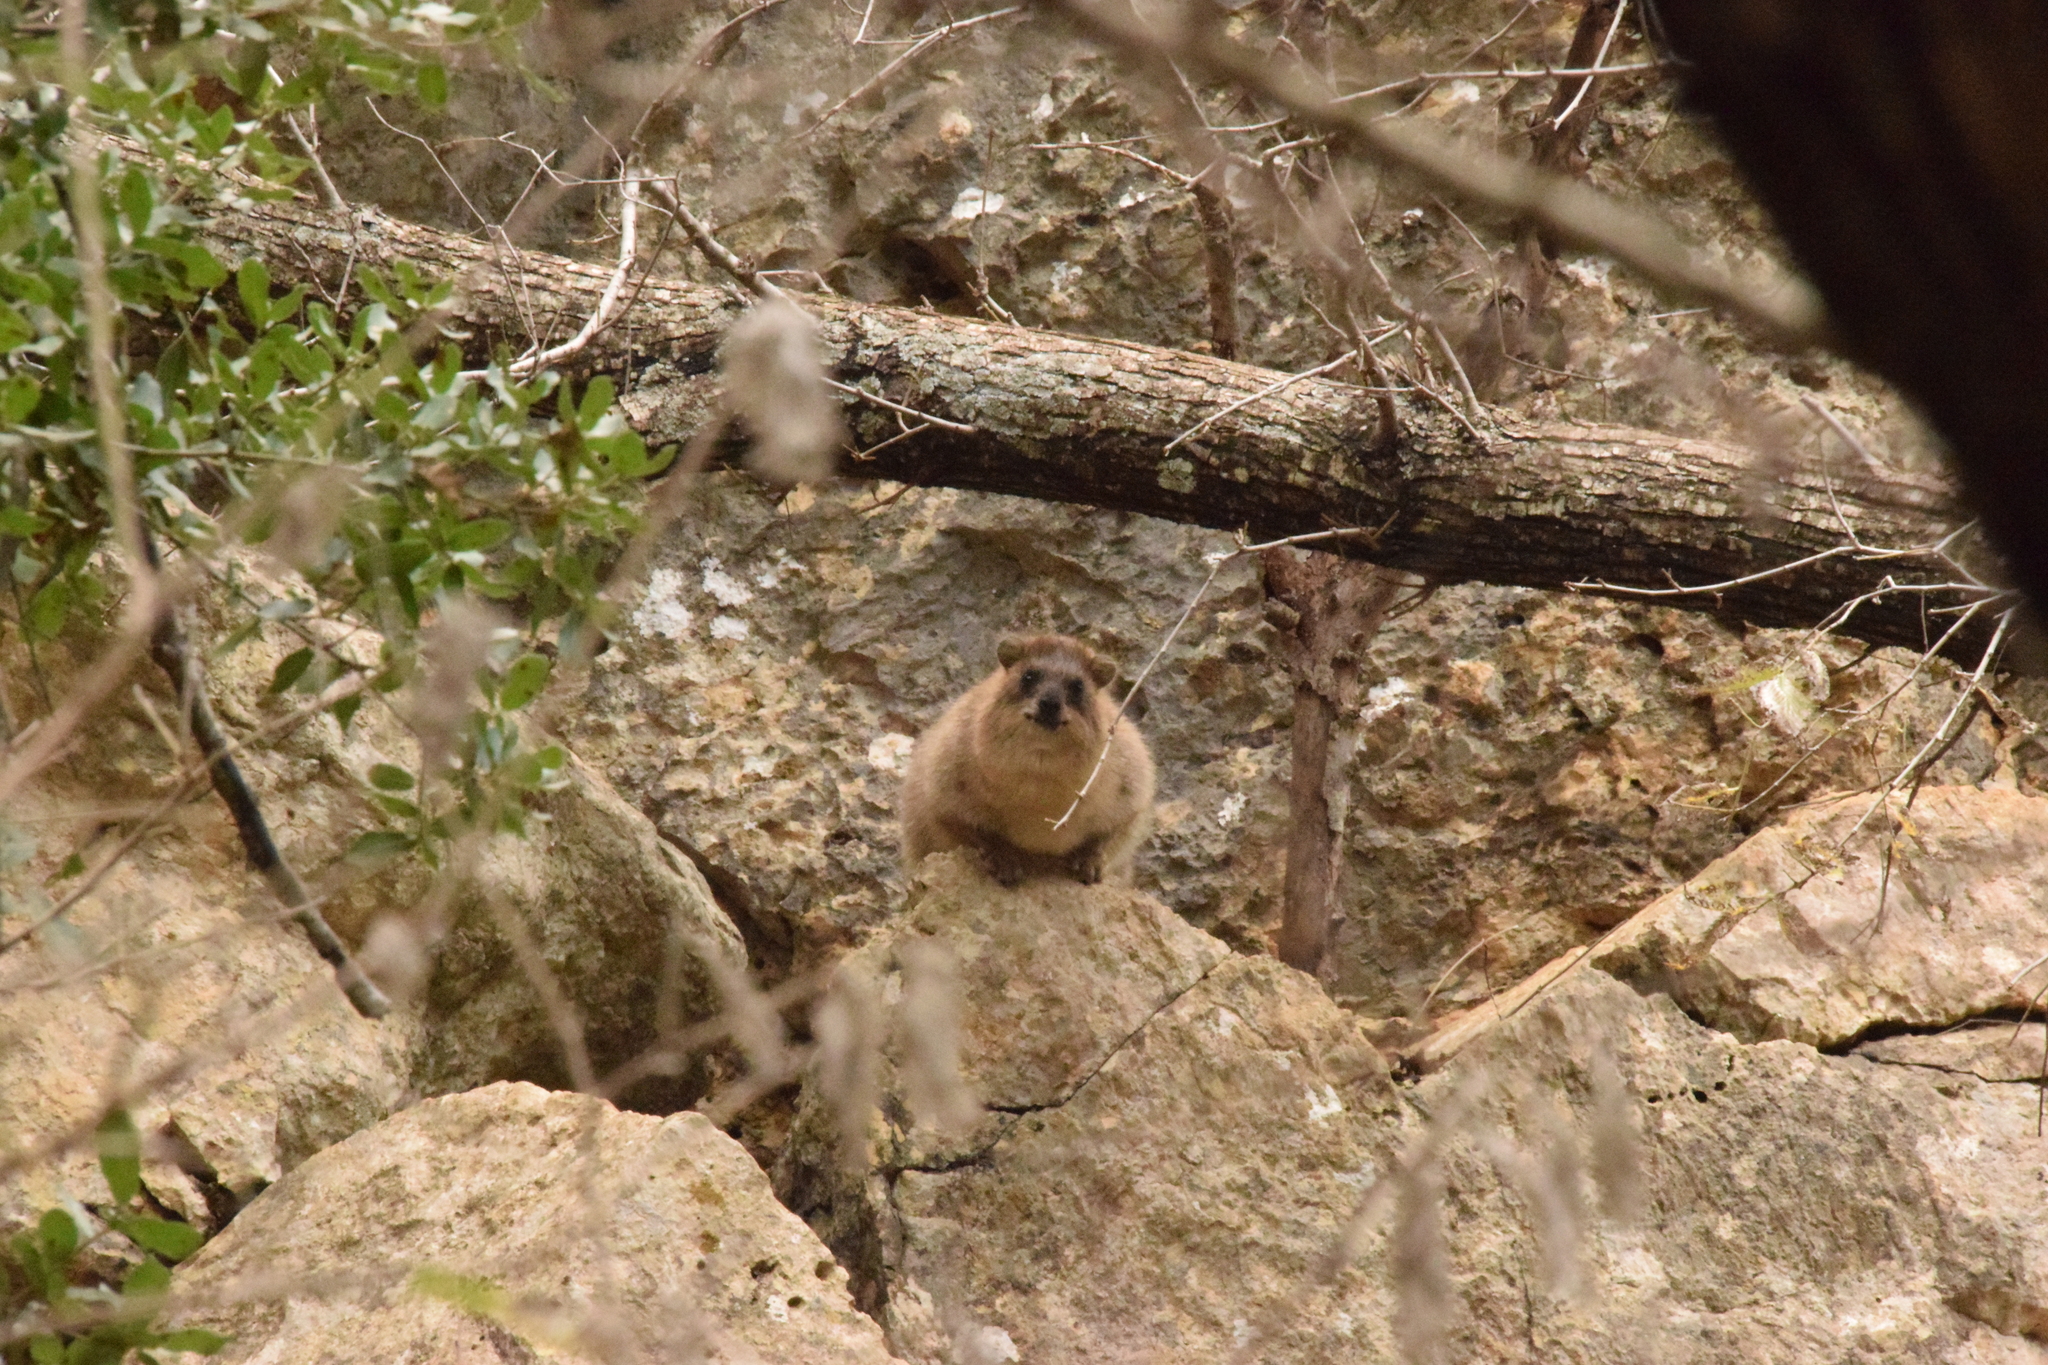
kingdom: Animalia
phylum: Chordata
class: Mammalia
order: Hyracoidea
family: Procaviidae
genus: Procavia
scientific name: Procavia capensis
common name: Rock hyrax
